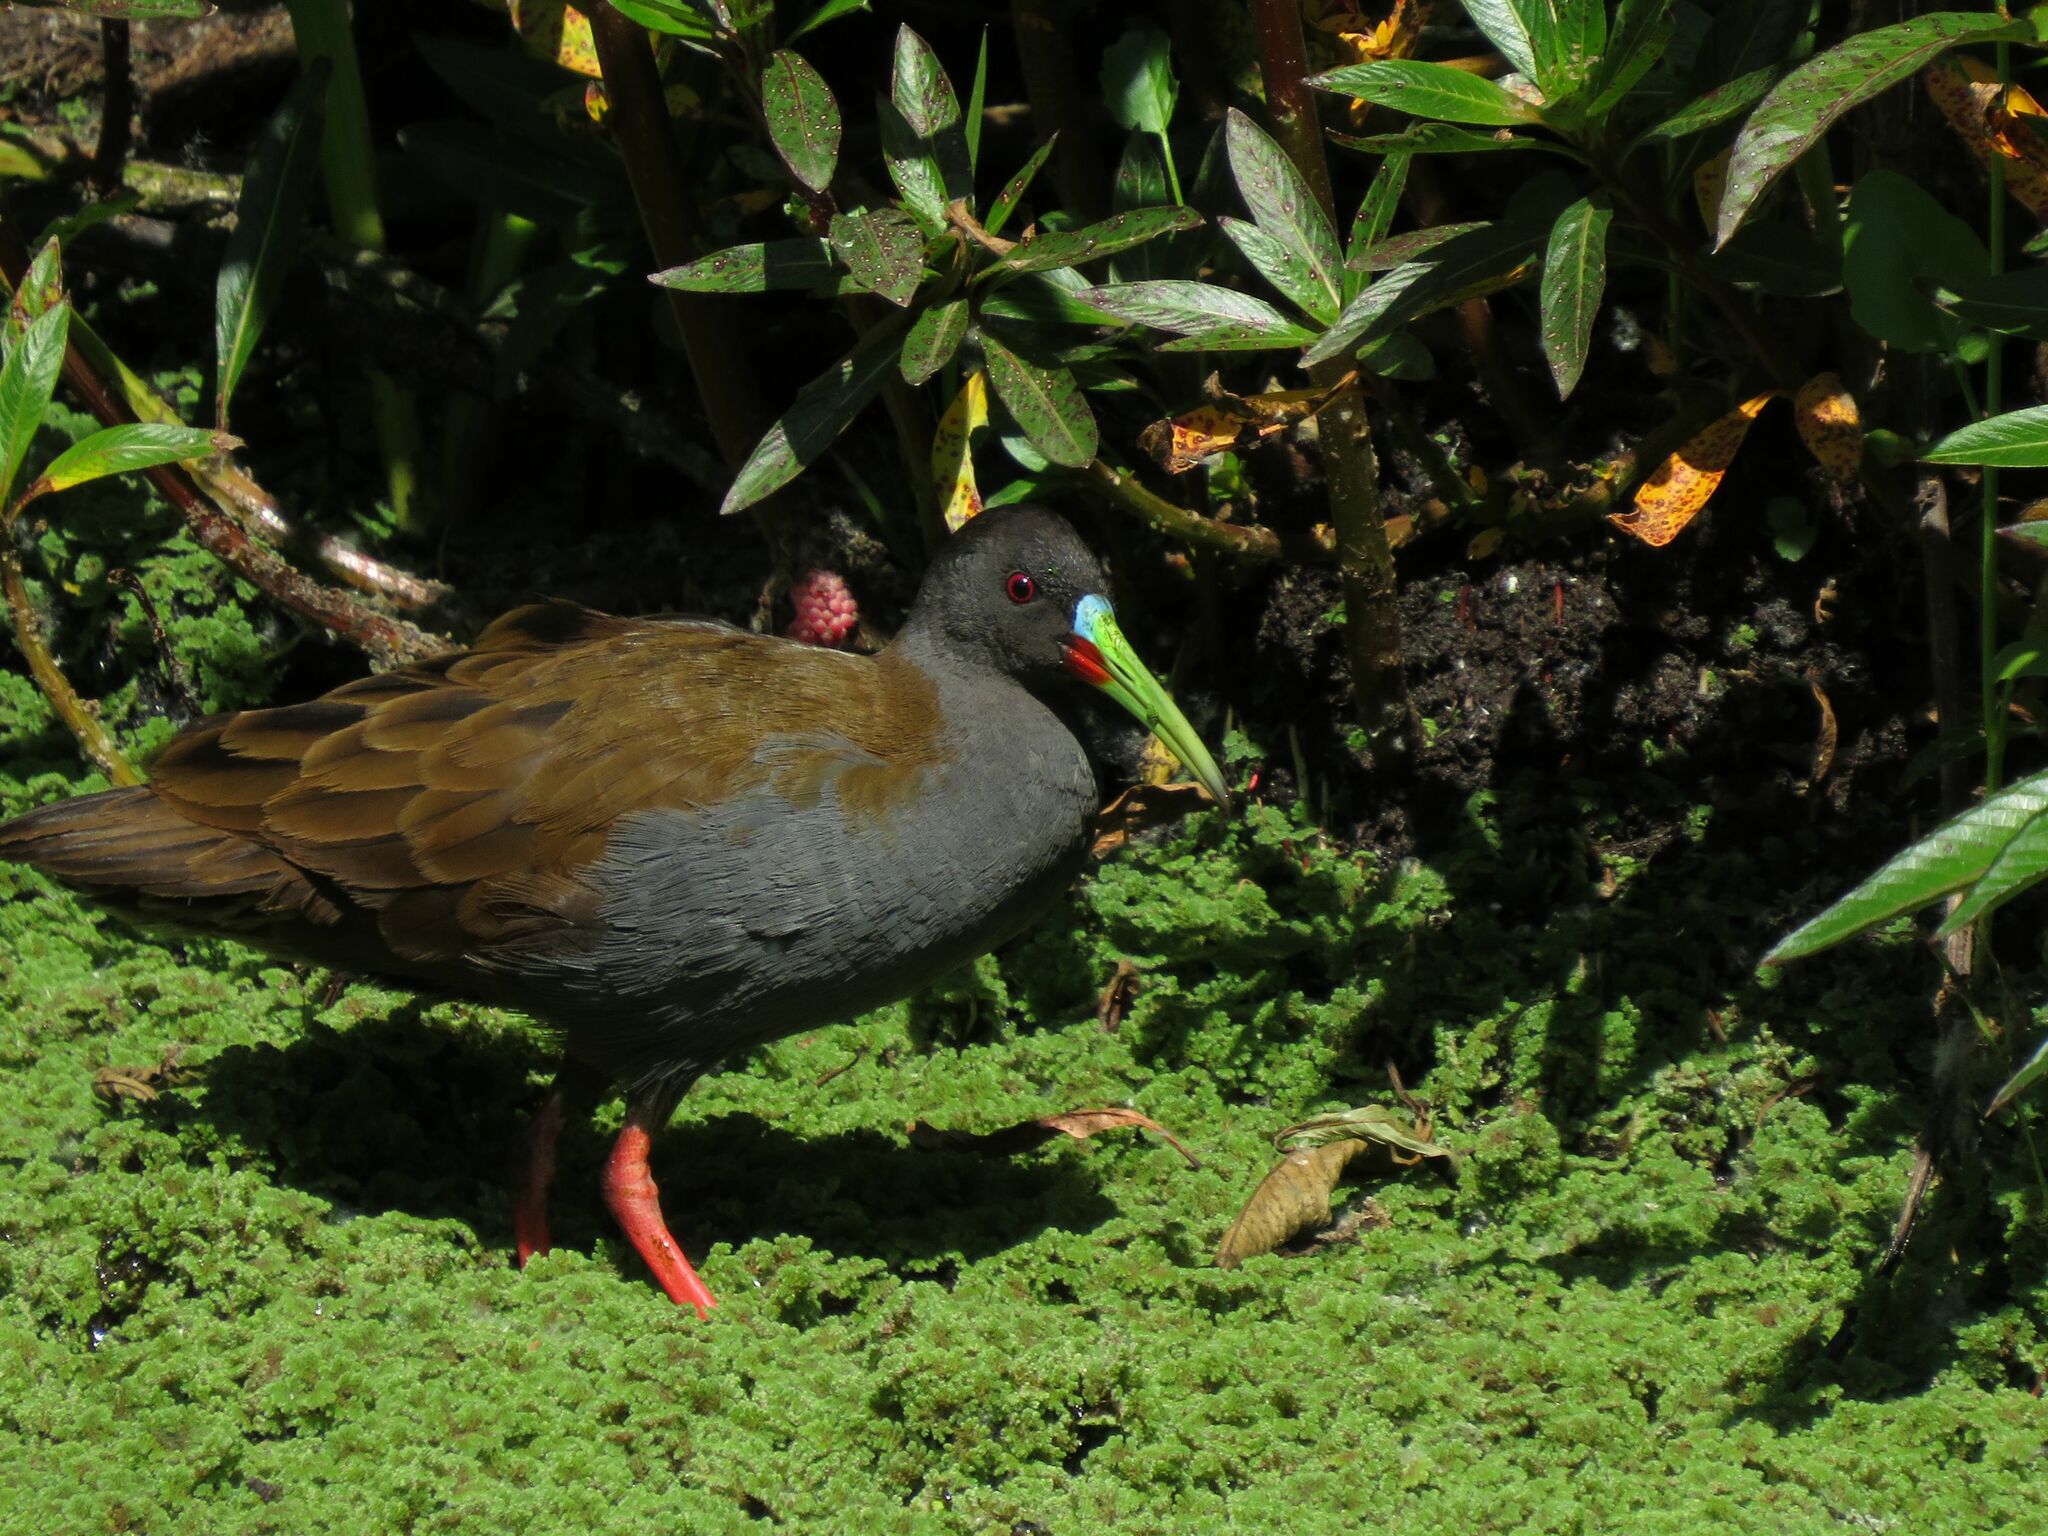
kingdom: Animalia
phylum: Chordata
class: Aves
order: Gruiformes
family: Rallidae
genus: Pardirallus
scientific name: Pardirallus sanguinolentus
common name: Plumbeous rail
